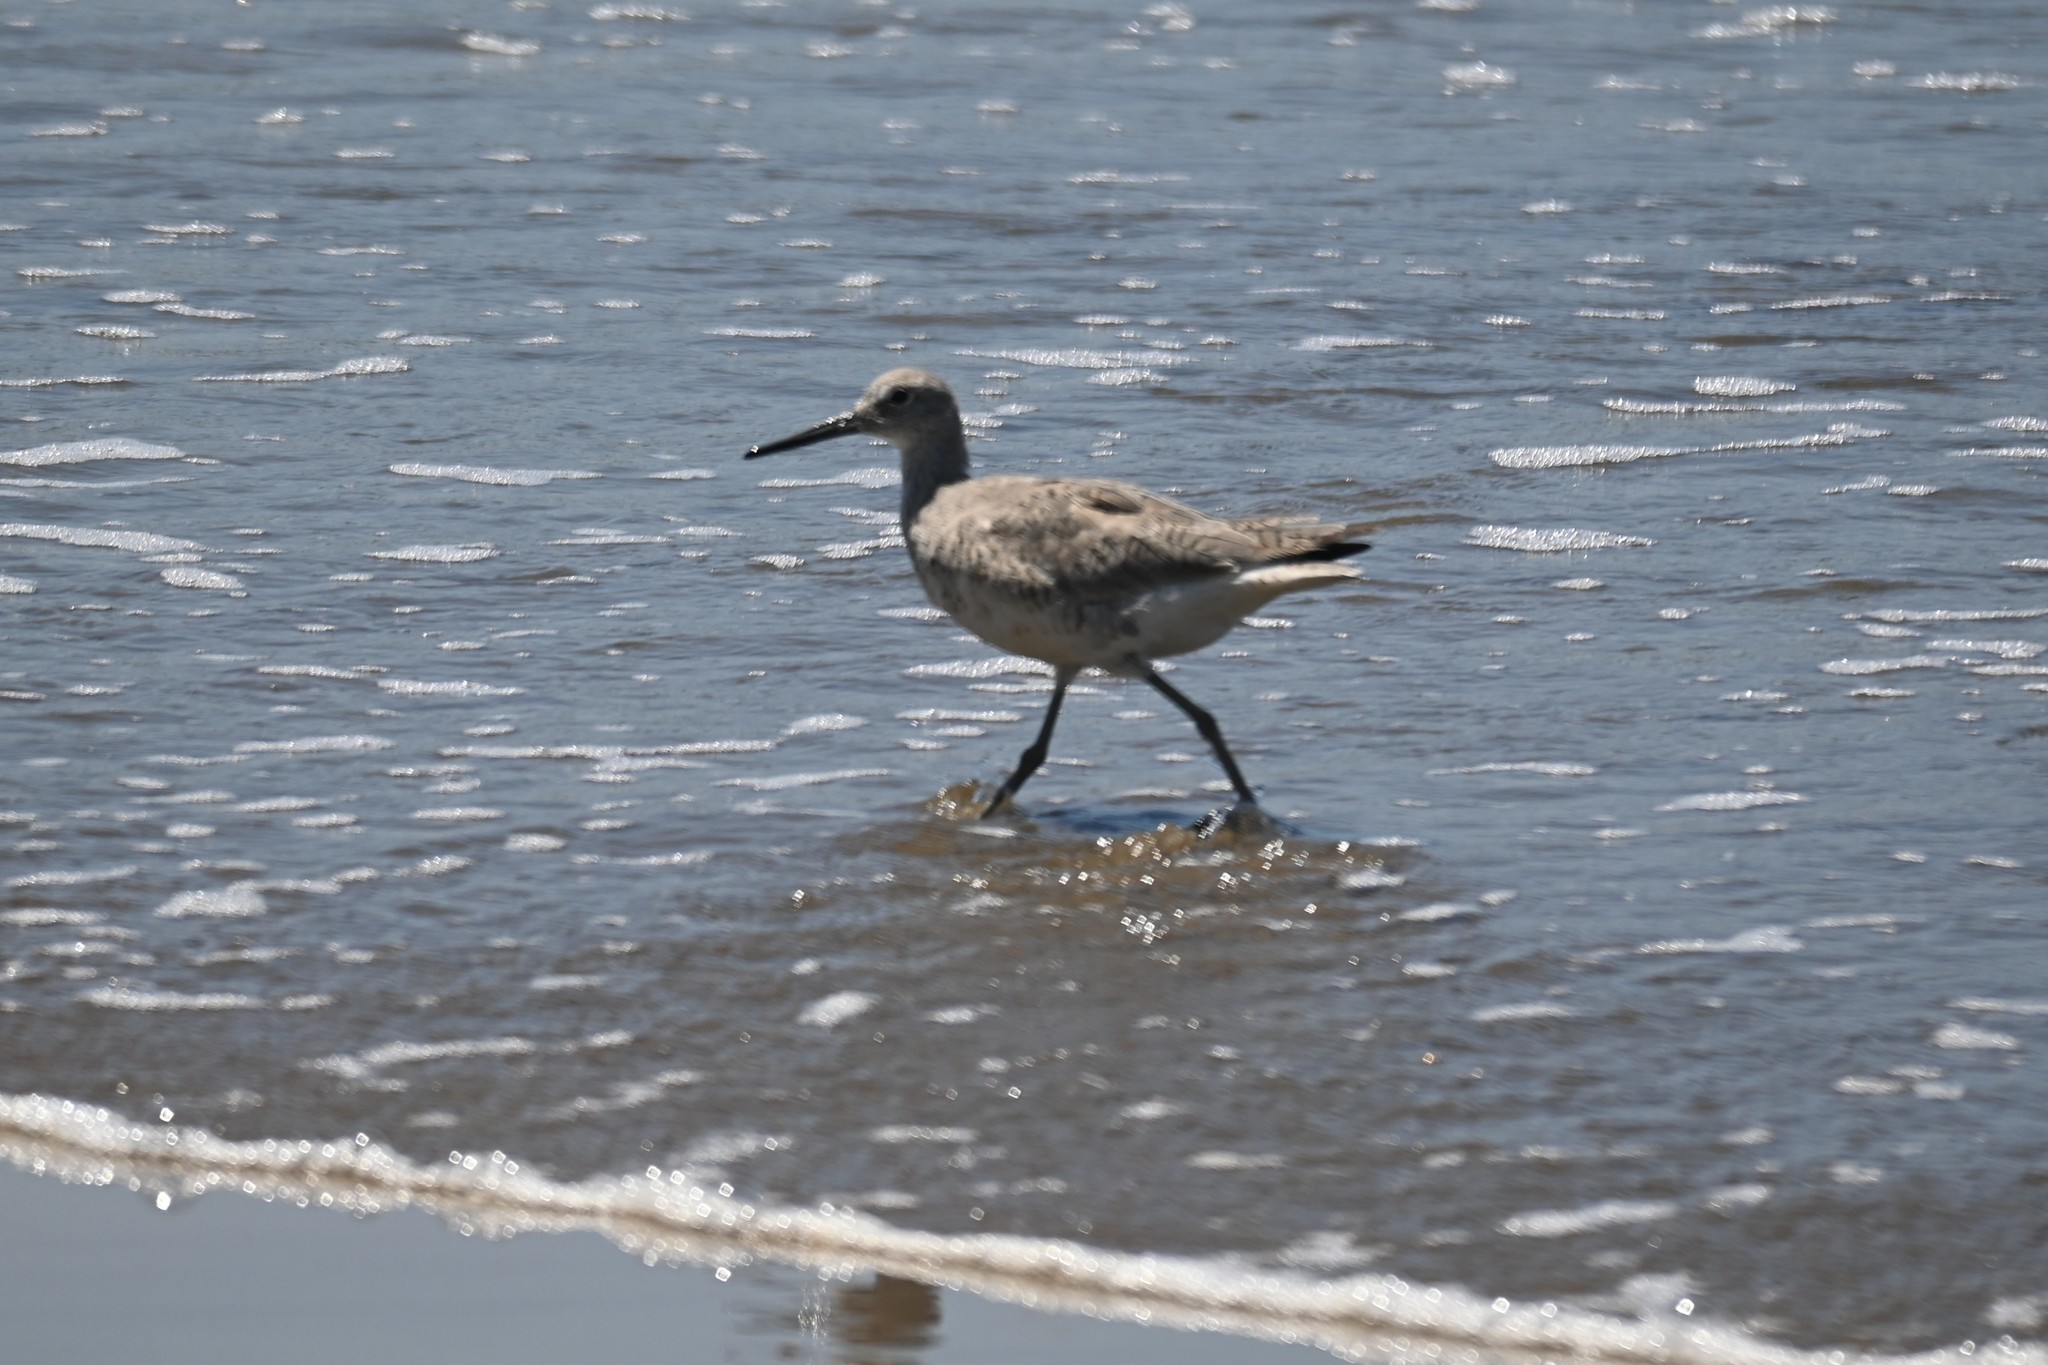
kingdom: Animalia
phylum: Chordata
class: Aves
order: Charadriiformes
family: Scolopacidae
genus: Tringa
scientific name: Tringa semipalmata
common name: Willet
